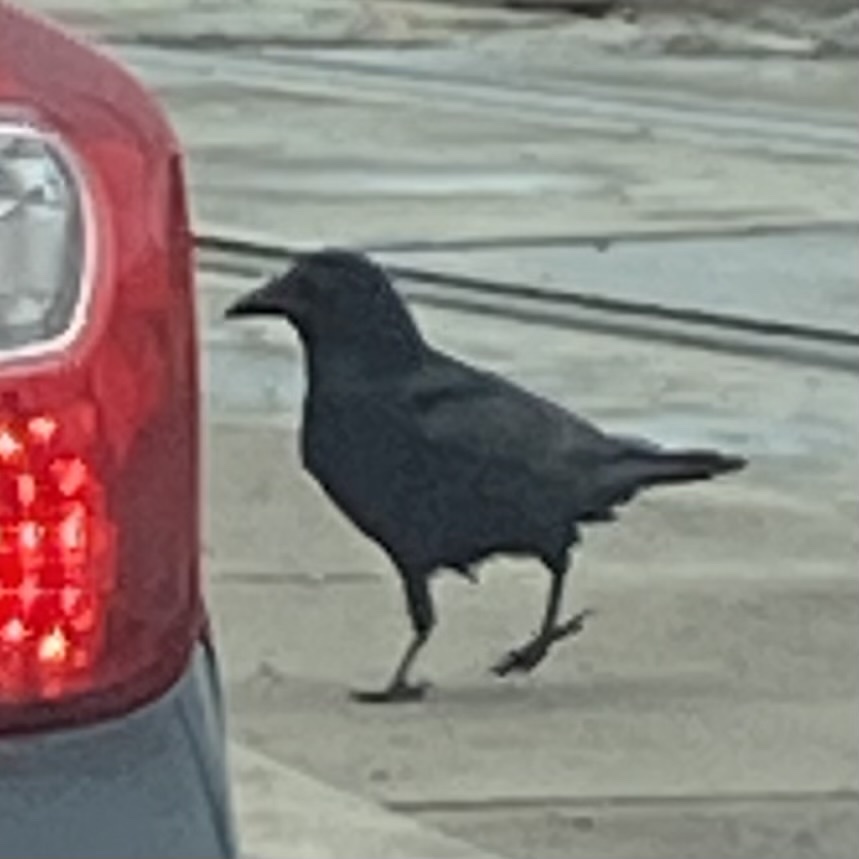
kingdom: Animalia
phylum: Chordata
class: Aves
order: Passeriformes
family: Corvidae
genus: Corvus
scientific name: Corvus corax
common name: Common raven
